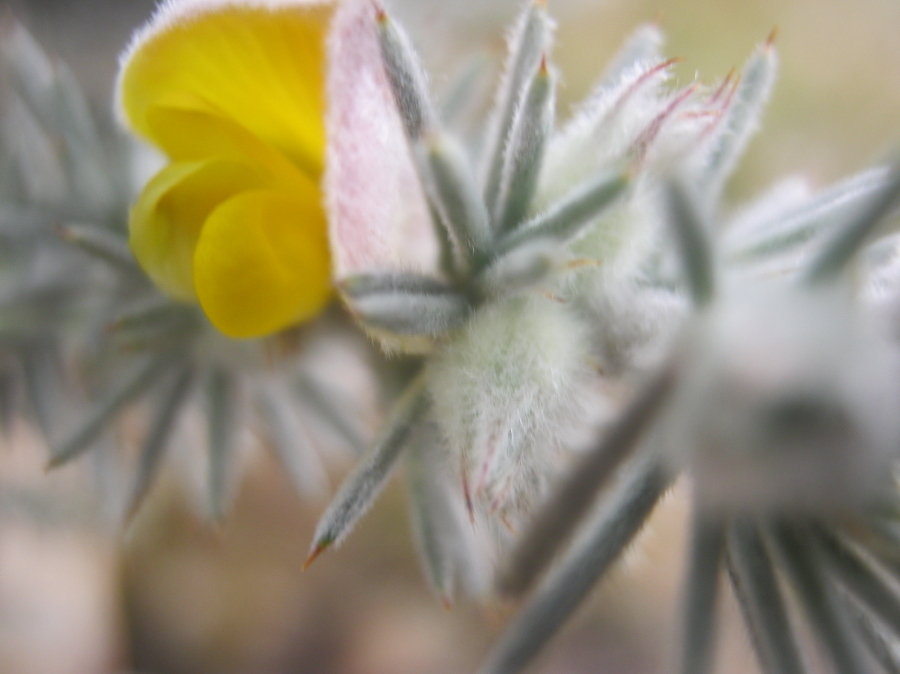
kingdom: Plantae
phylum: Tracheophyta
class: Magnoliopsida
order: Fabales
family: Fabaceae
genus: Aspalathus
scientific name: Aspalathus hystrix
